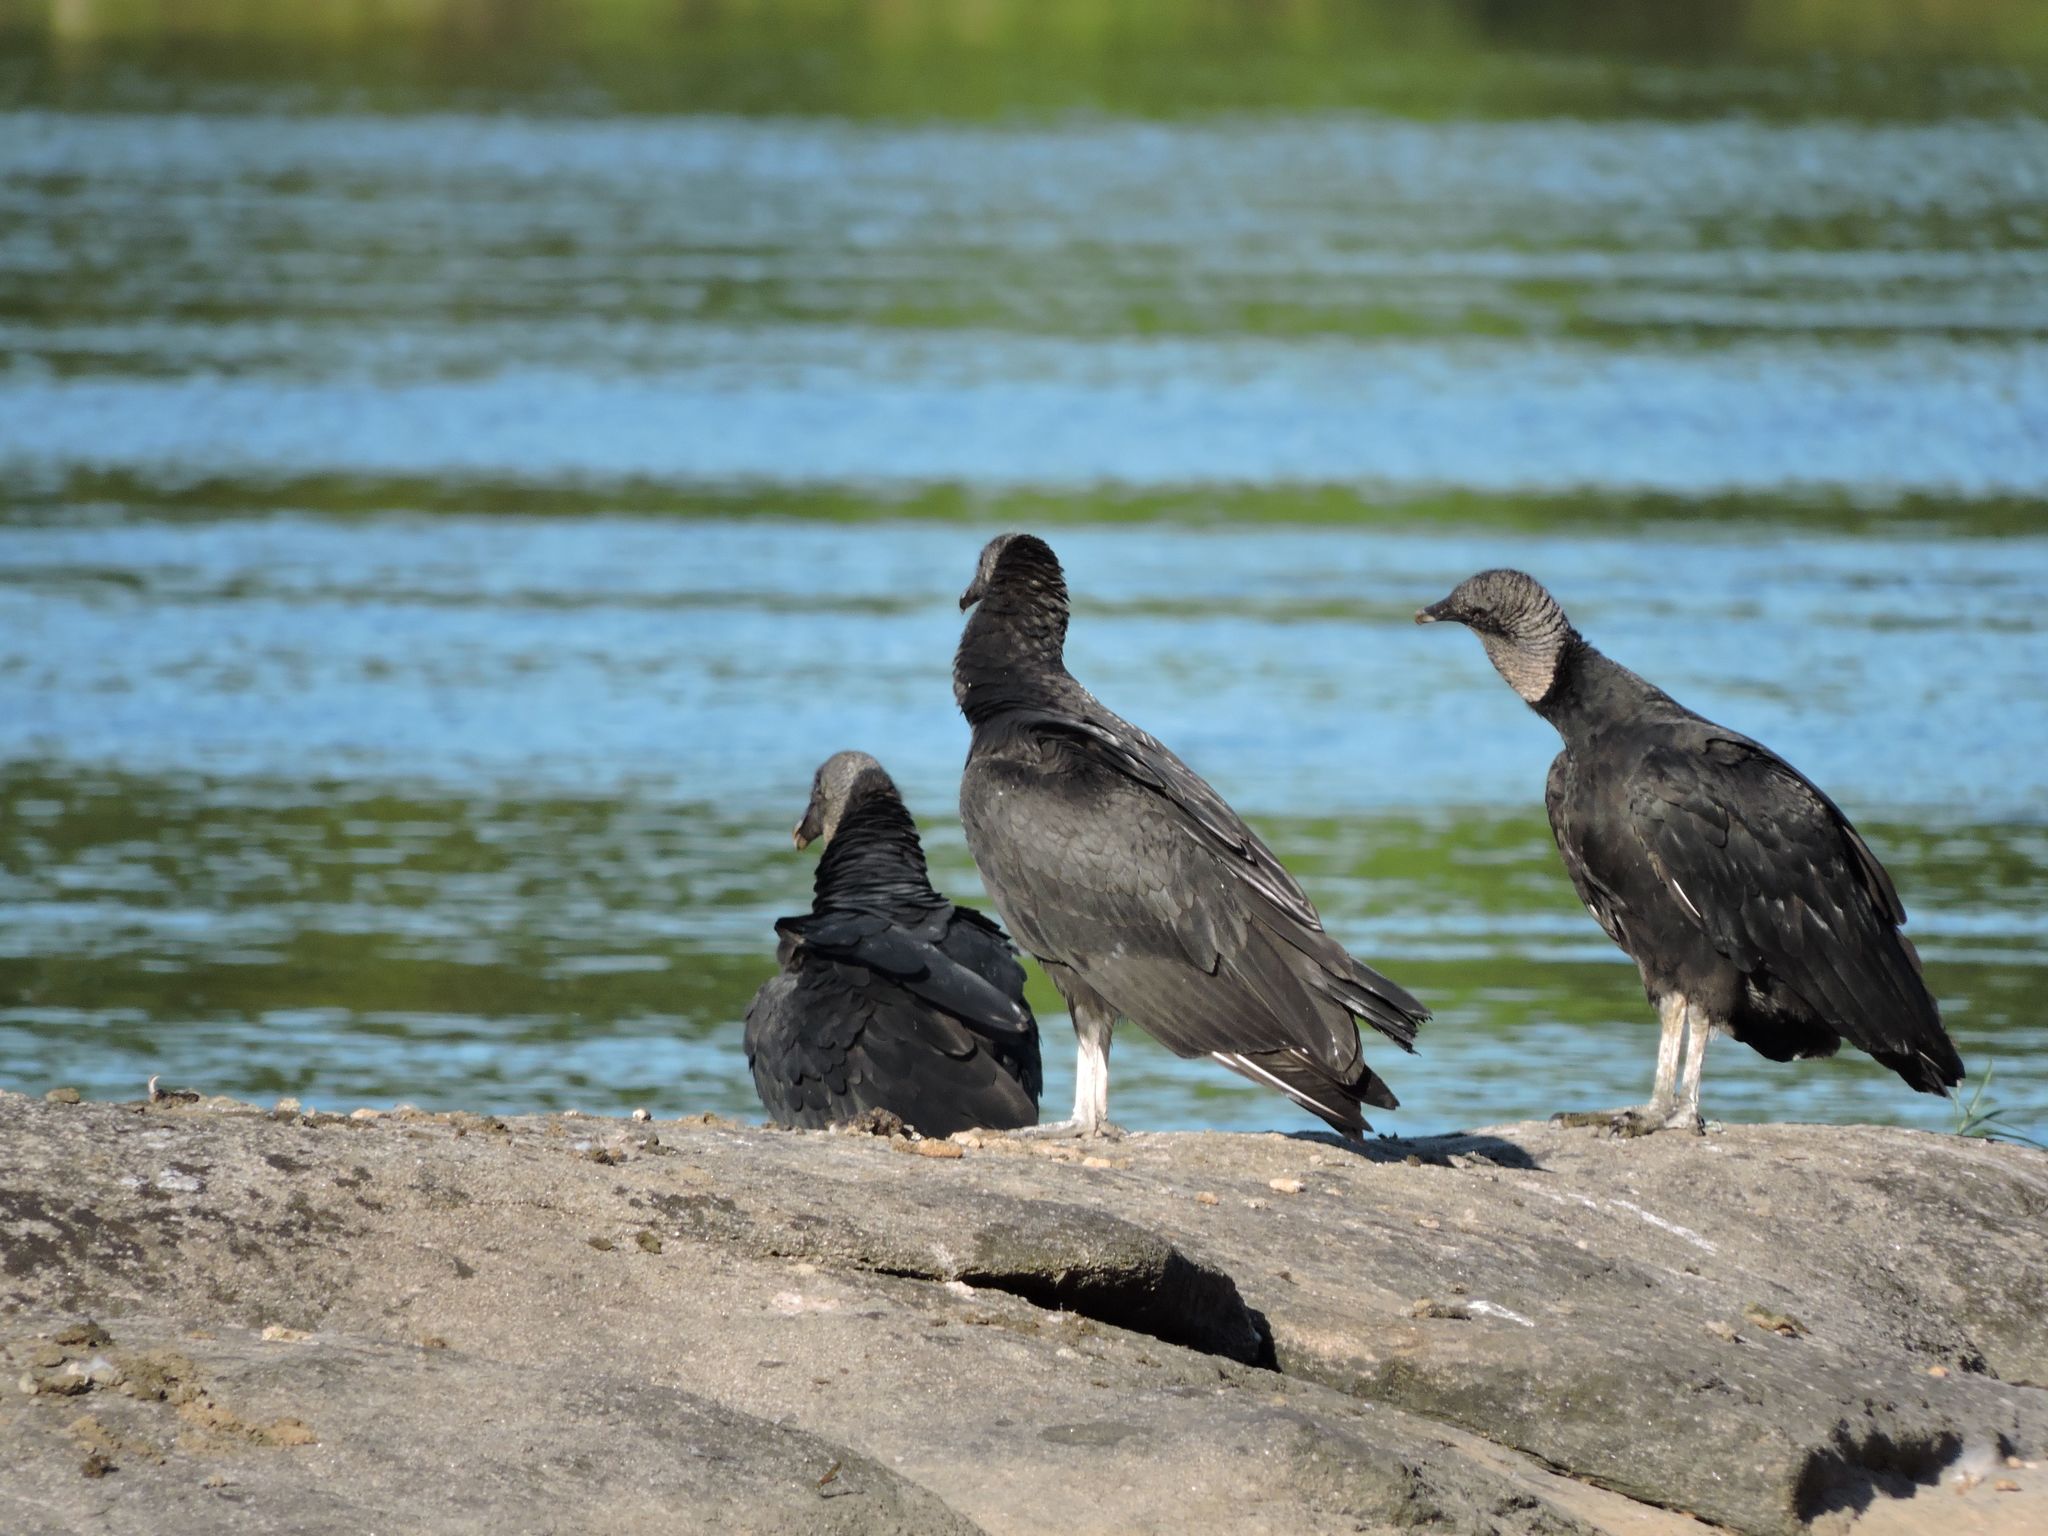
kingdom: Animalia
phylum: Chordata
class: Aves
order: Accipitriformes
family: Cathartidae
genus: Coragyps
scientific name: Coragyps atratus
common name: Black vulture
